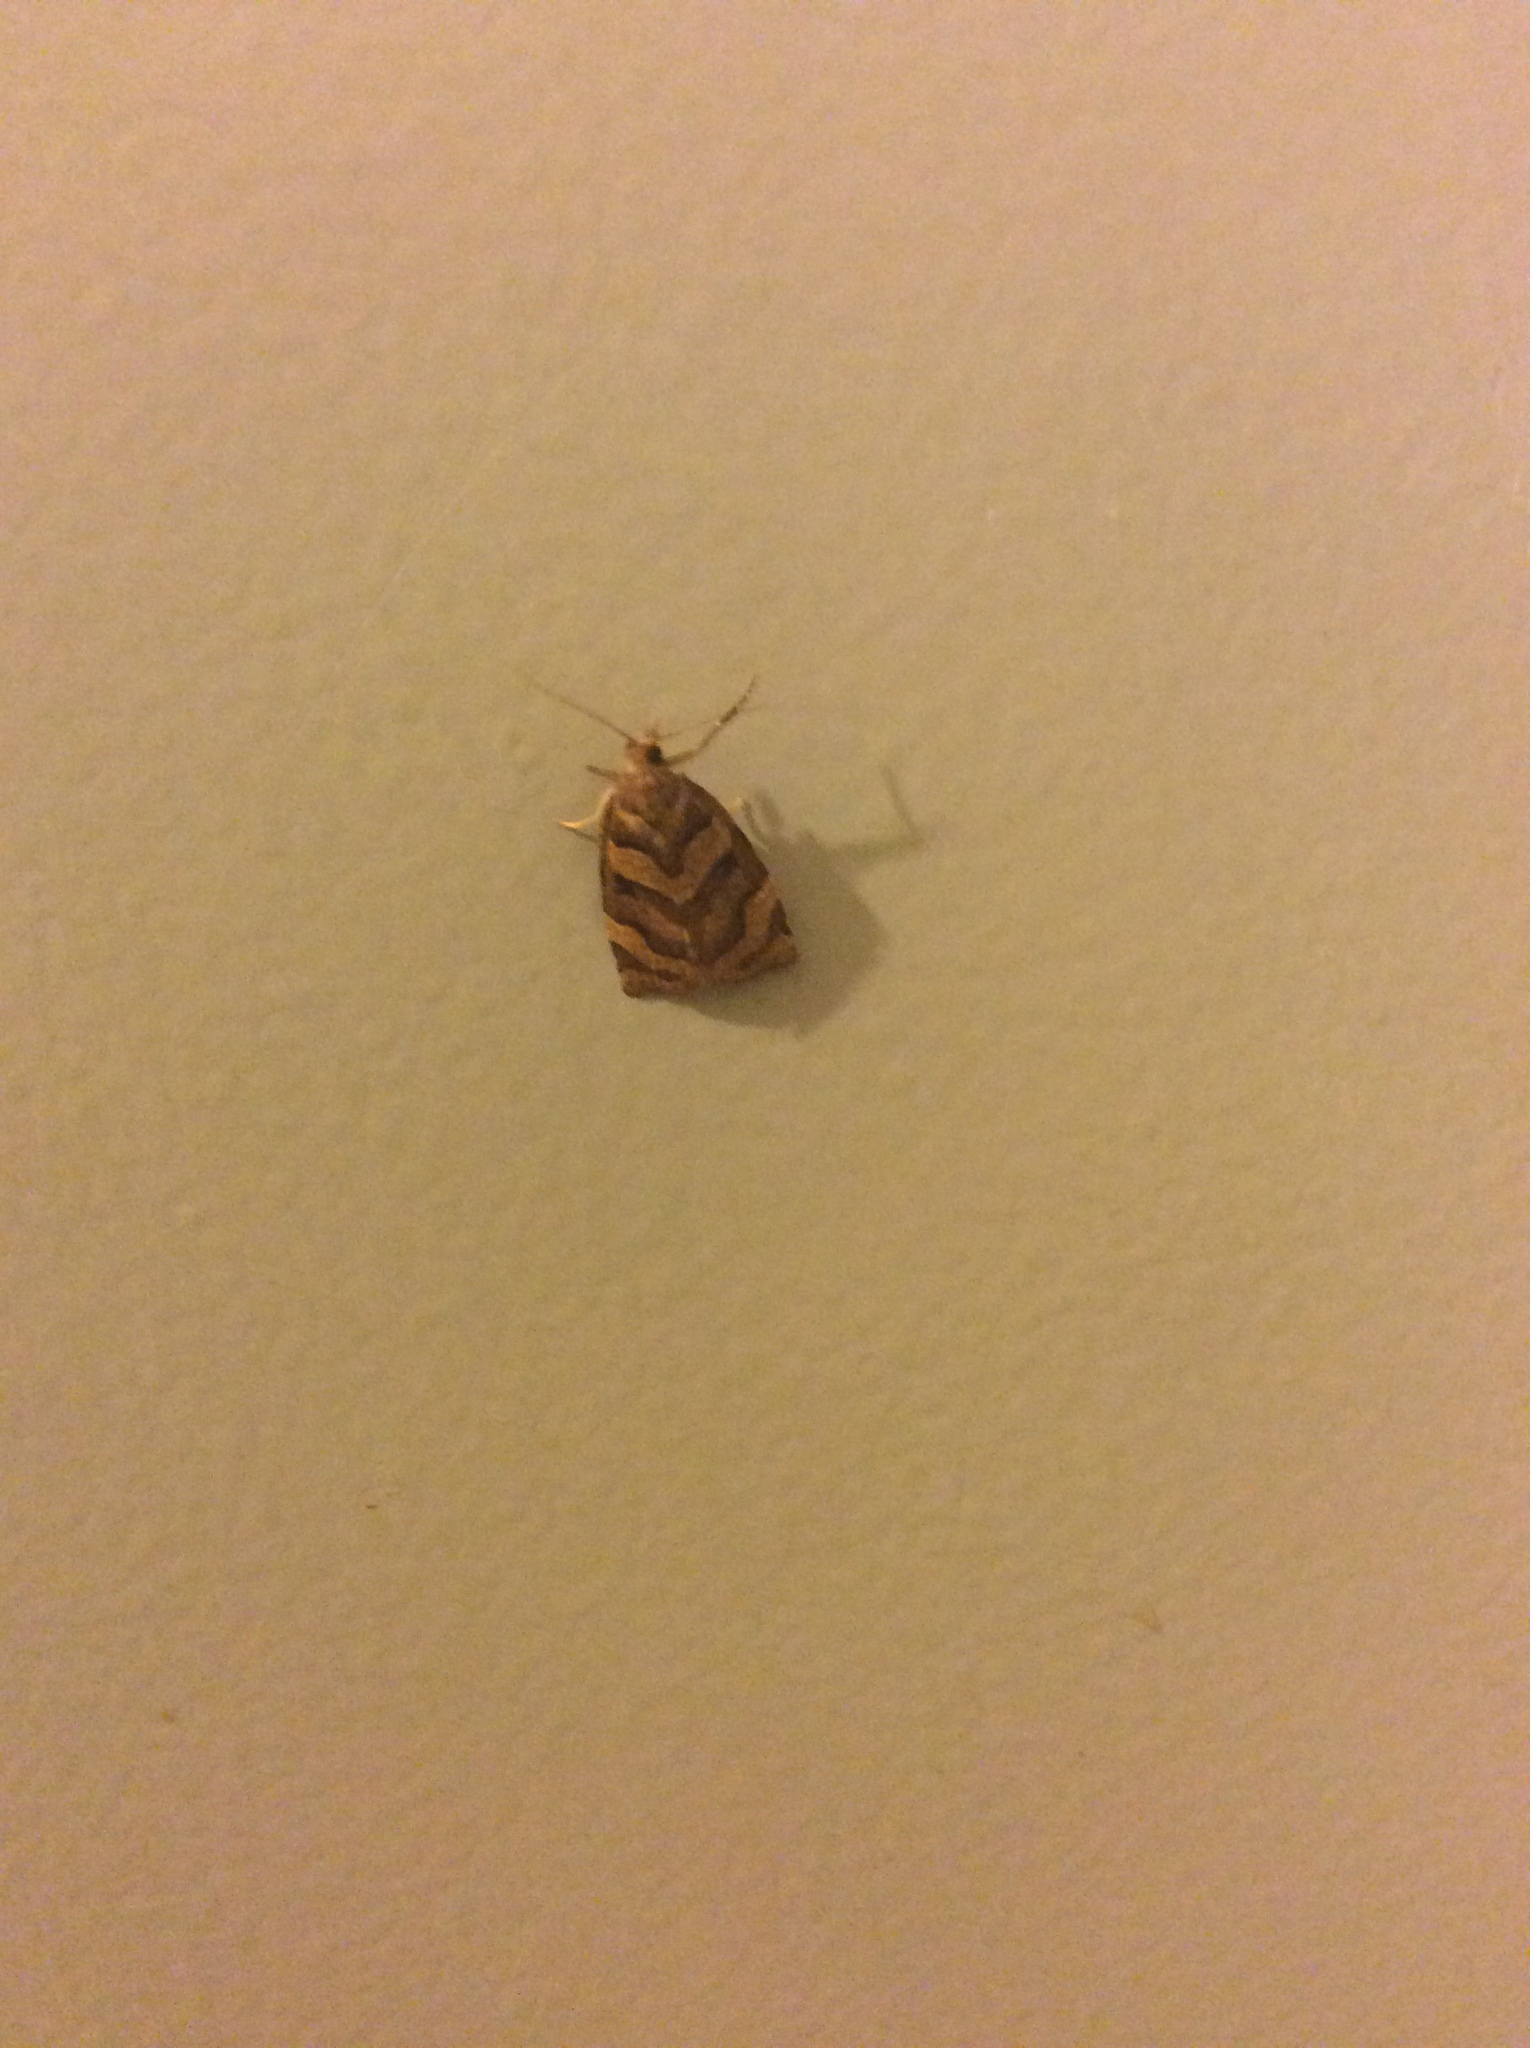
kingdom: Animalia
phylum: Arthropoda
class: Insecta
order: Lepidoptera
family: Tortricidae
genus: Apoctena
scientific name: Apoctena tigris
